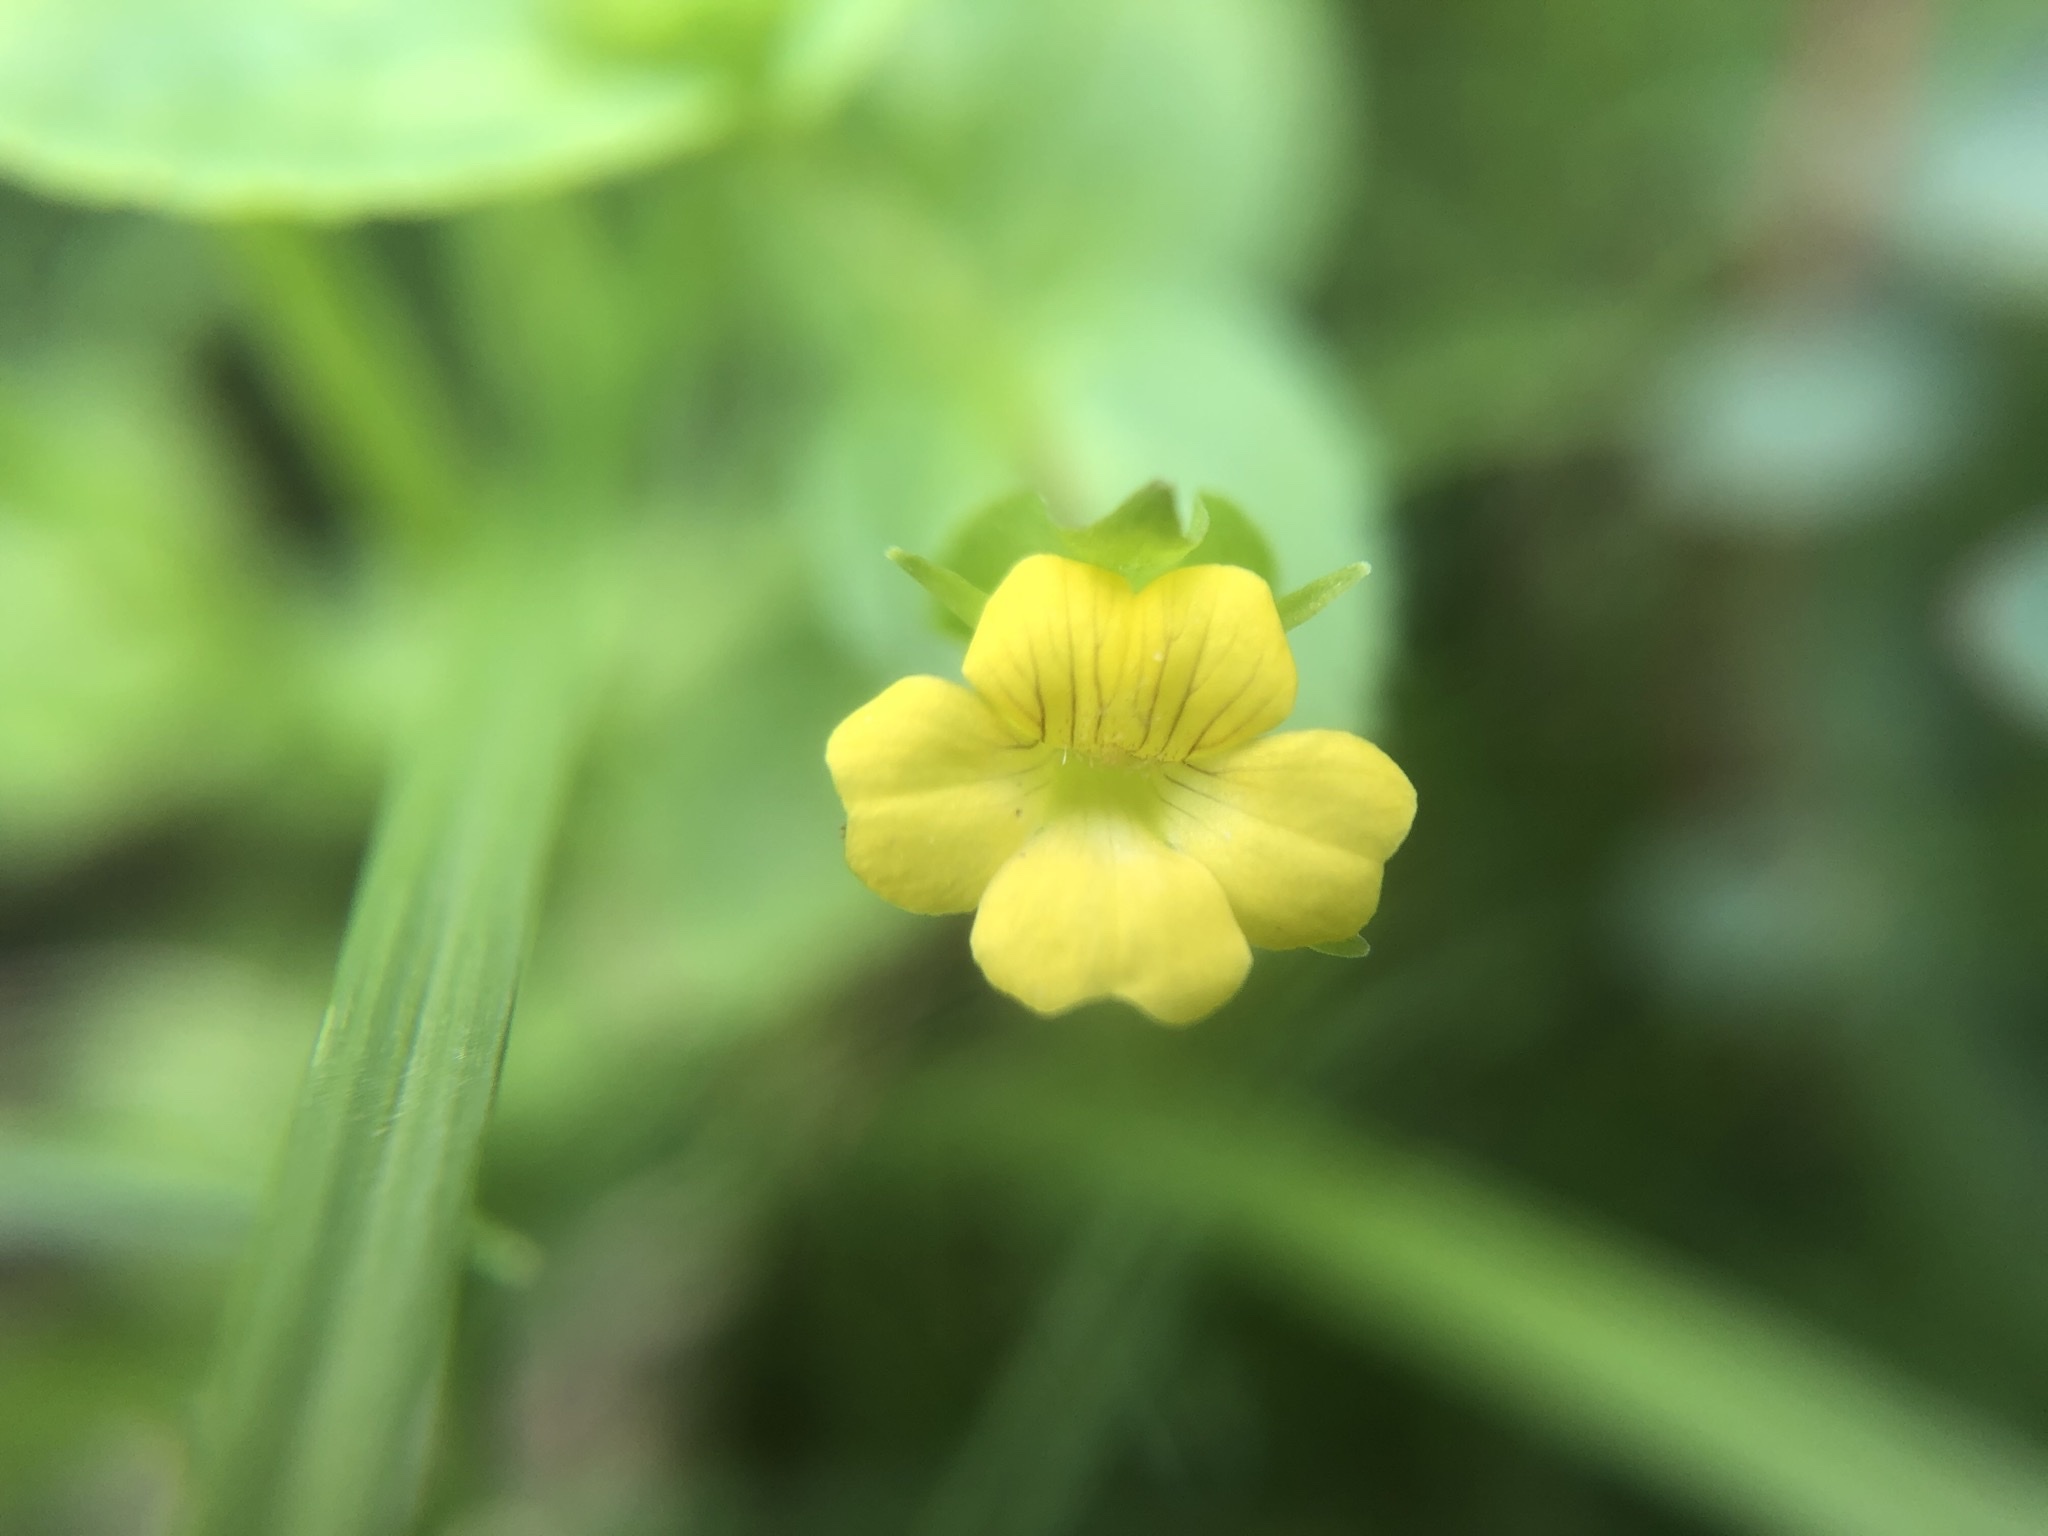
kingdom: Plantae
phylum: Tracheophyta
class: Magnoliopsida
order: Lamiales
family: Plantaginaceae
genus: Mecardonia
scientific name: Mecardonia procumbens
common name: Baby jump-up
